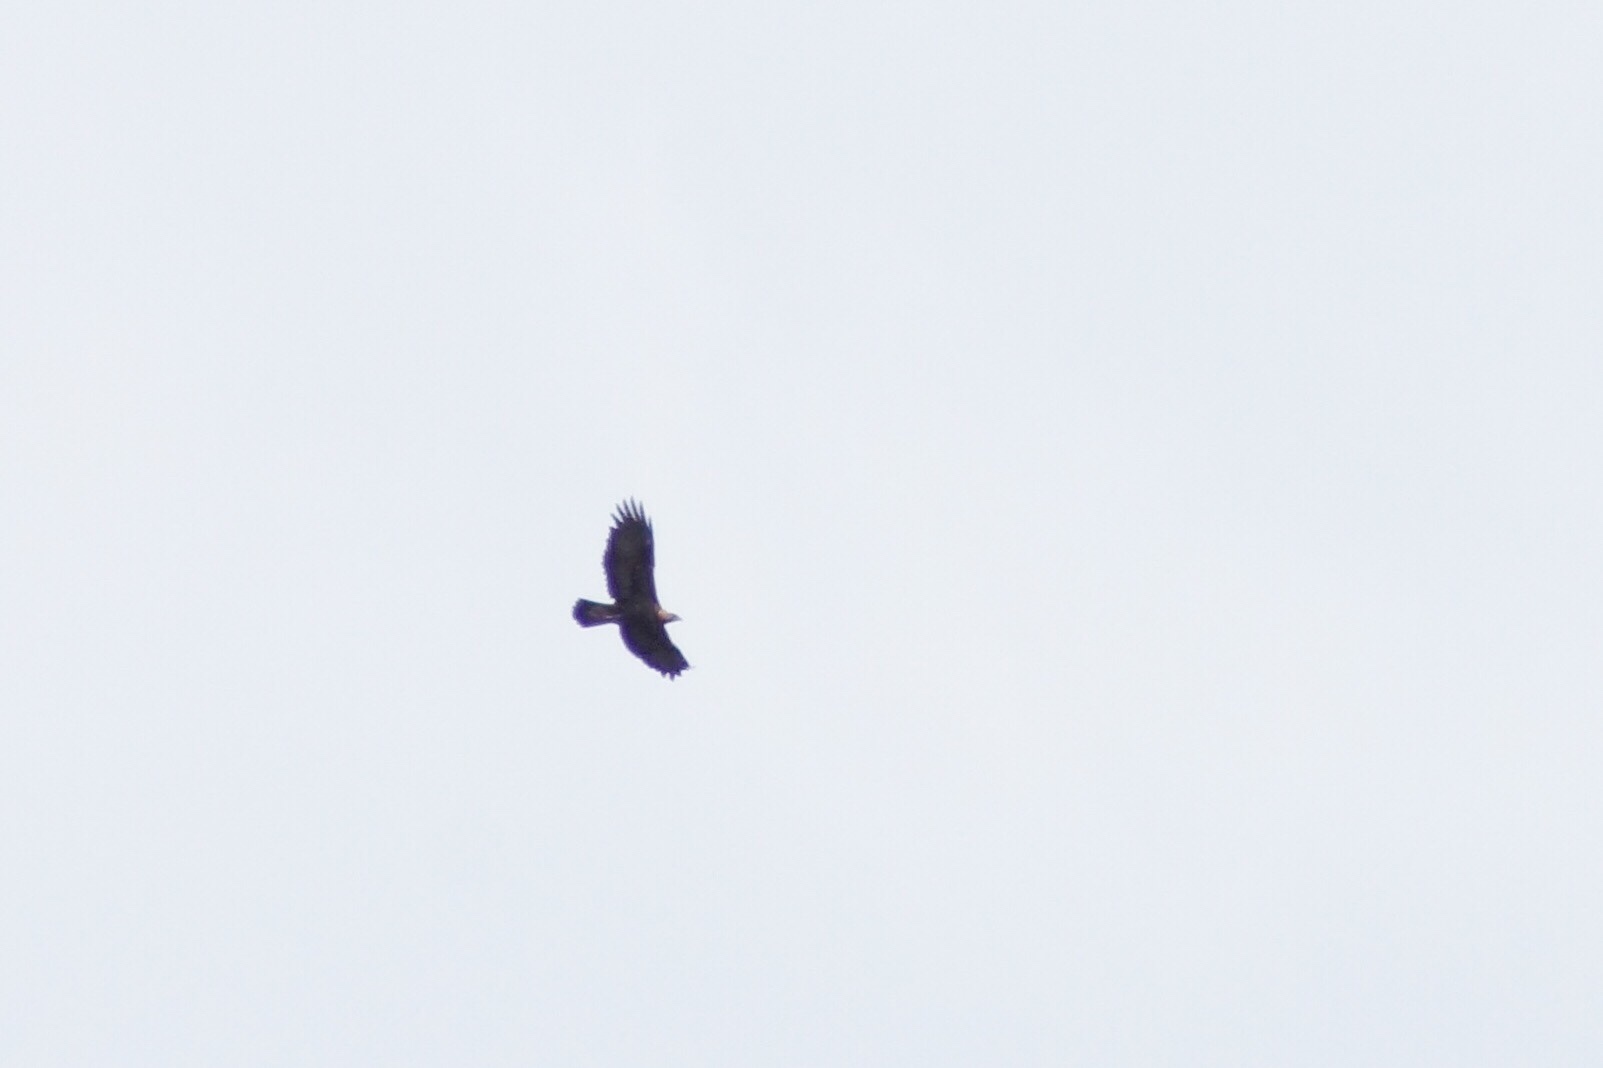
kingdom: Animalia
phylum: Chordata
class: Aves
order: Accipitriformes
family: Accipitridae
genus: Aquila
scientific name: Aquila chrysaetos
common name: Golden eagle
